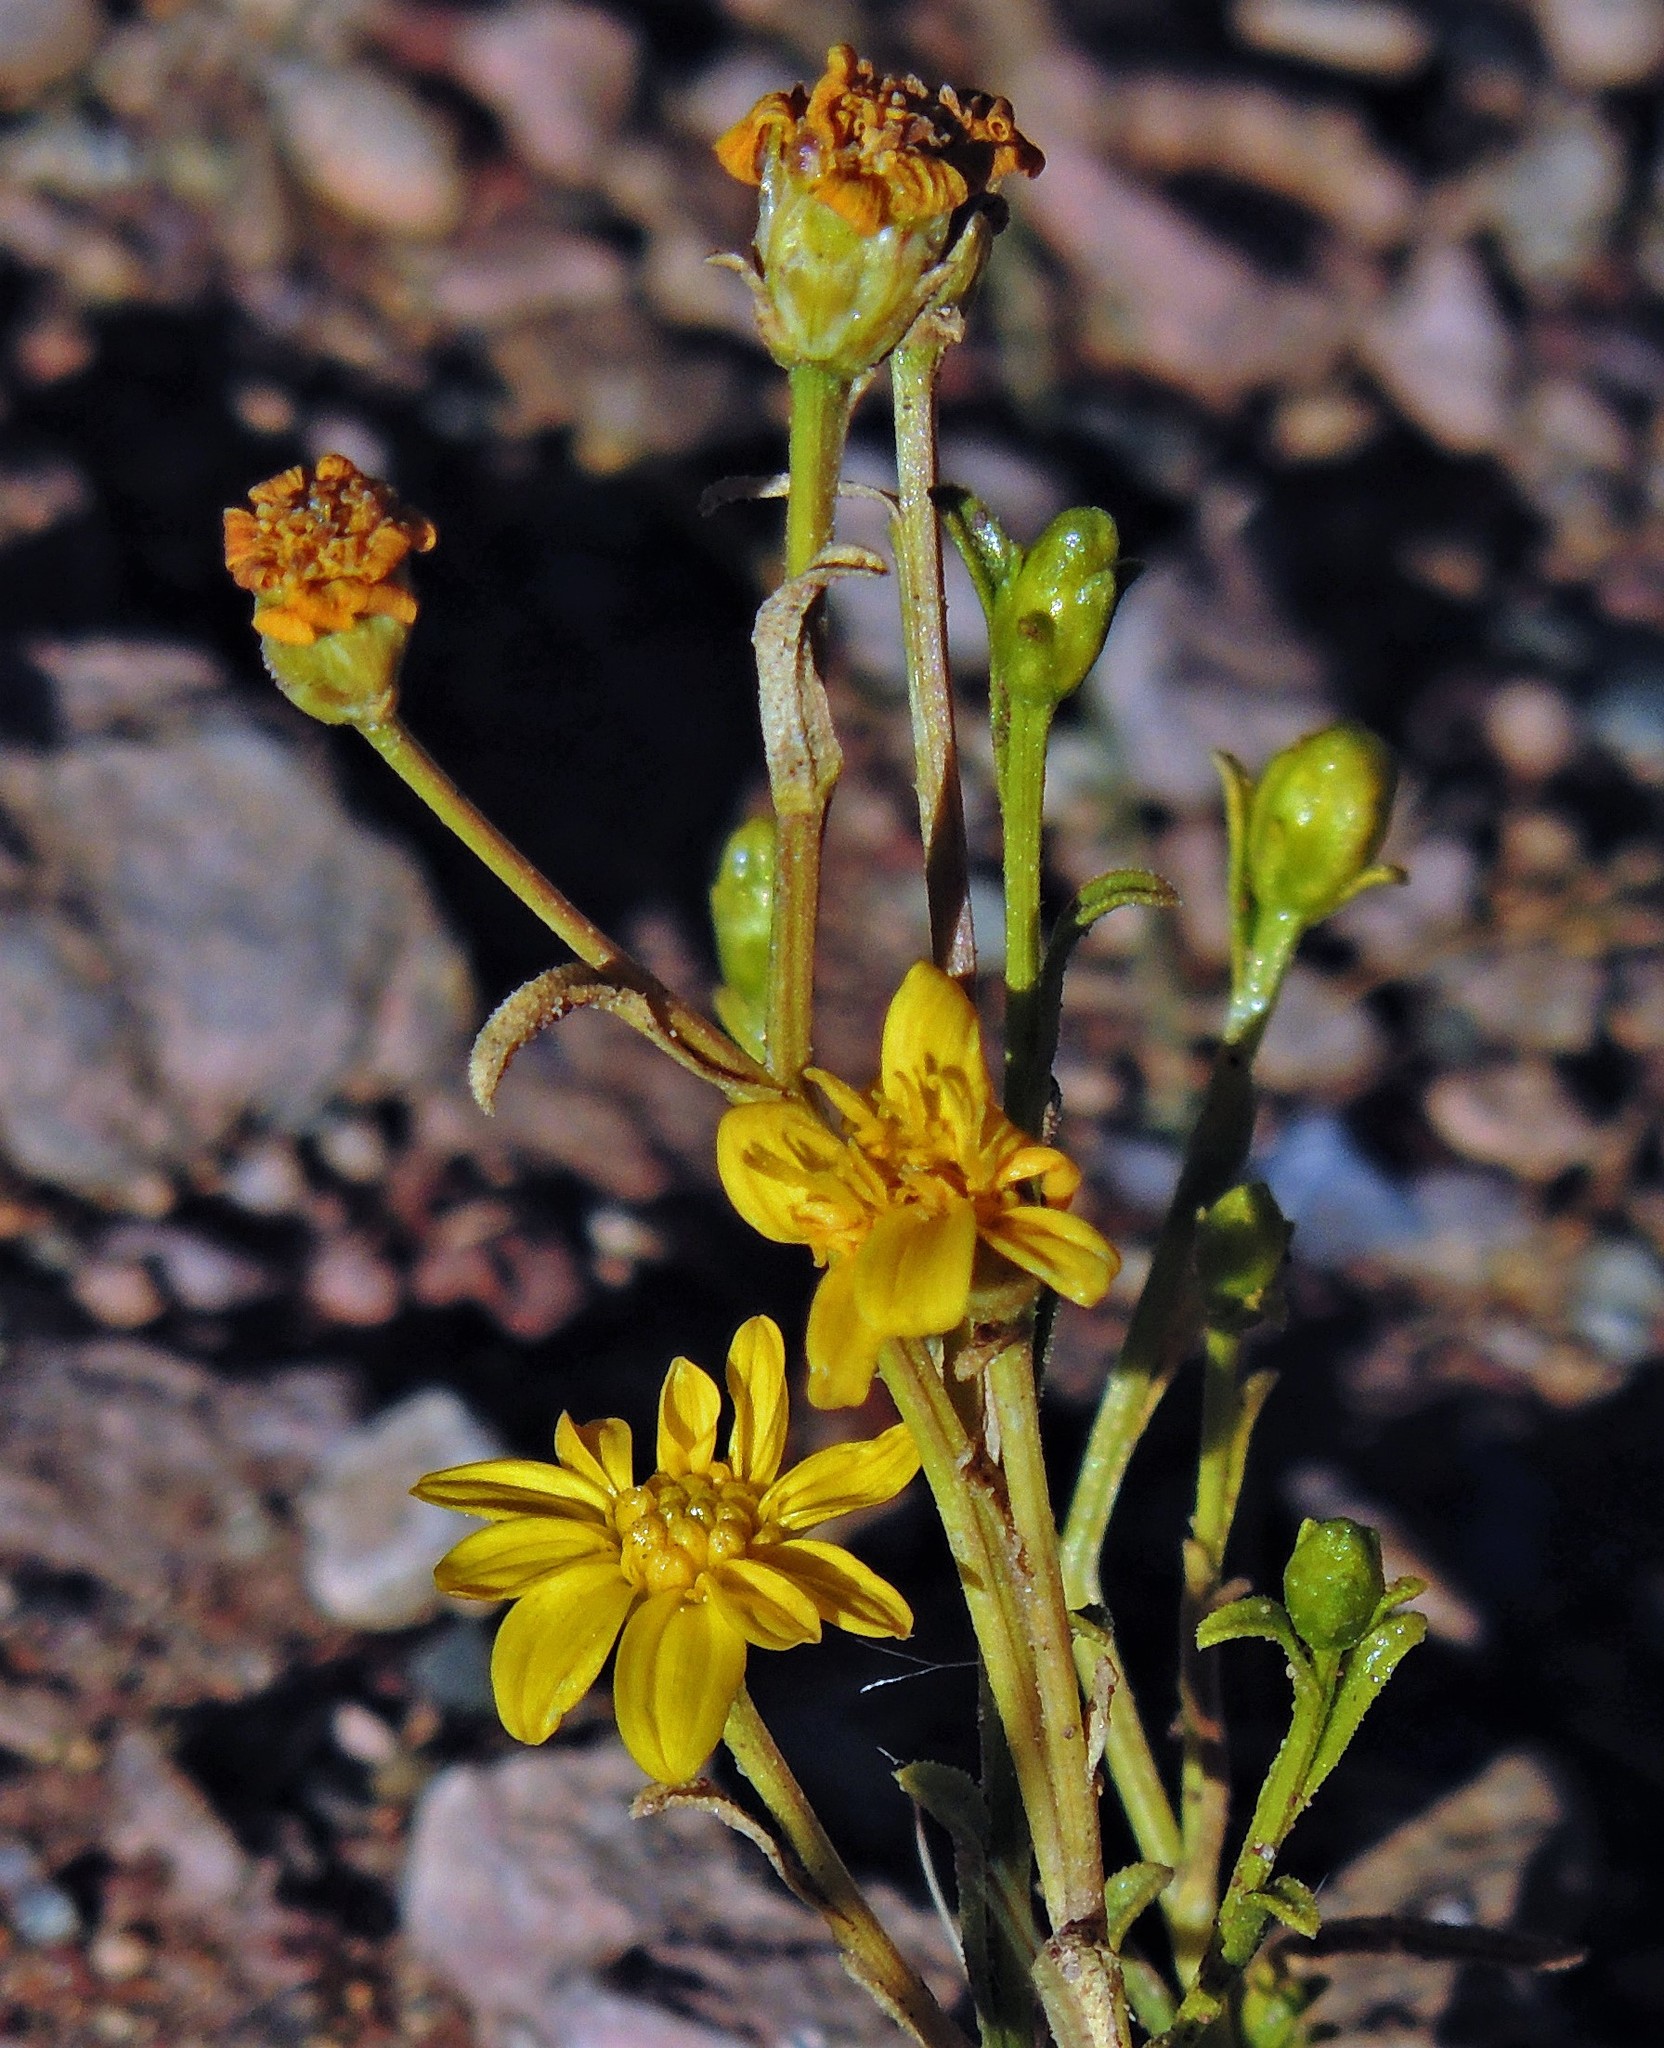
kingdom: Plantae
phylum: Tracheophyta
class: Magnoliopsida
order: Asterales
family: Asteraceae
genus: Gutierrezia
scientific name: Gutierrezia mandonii
